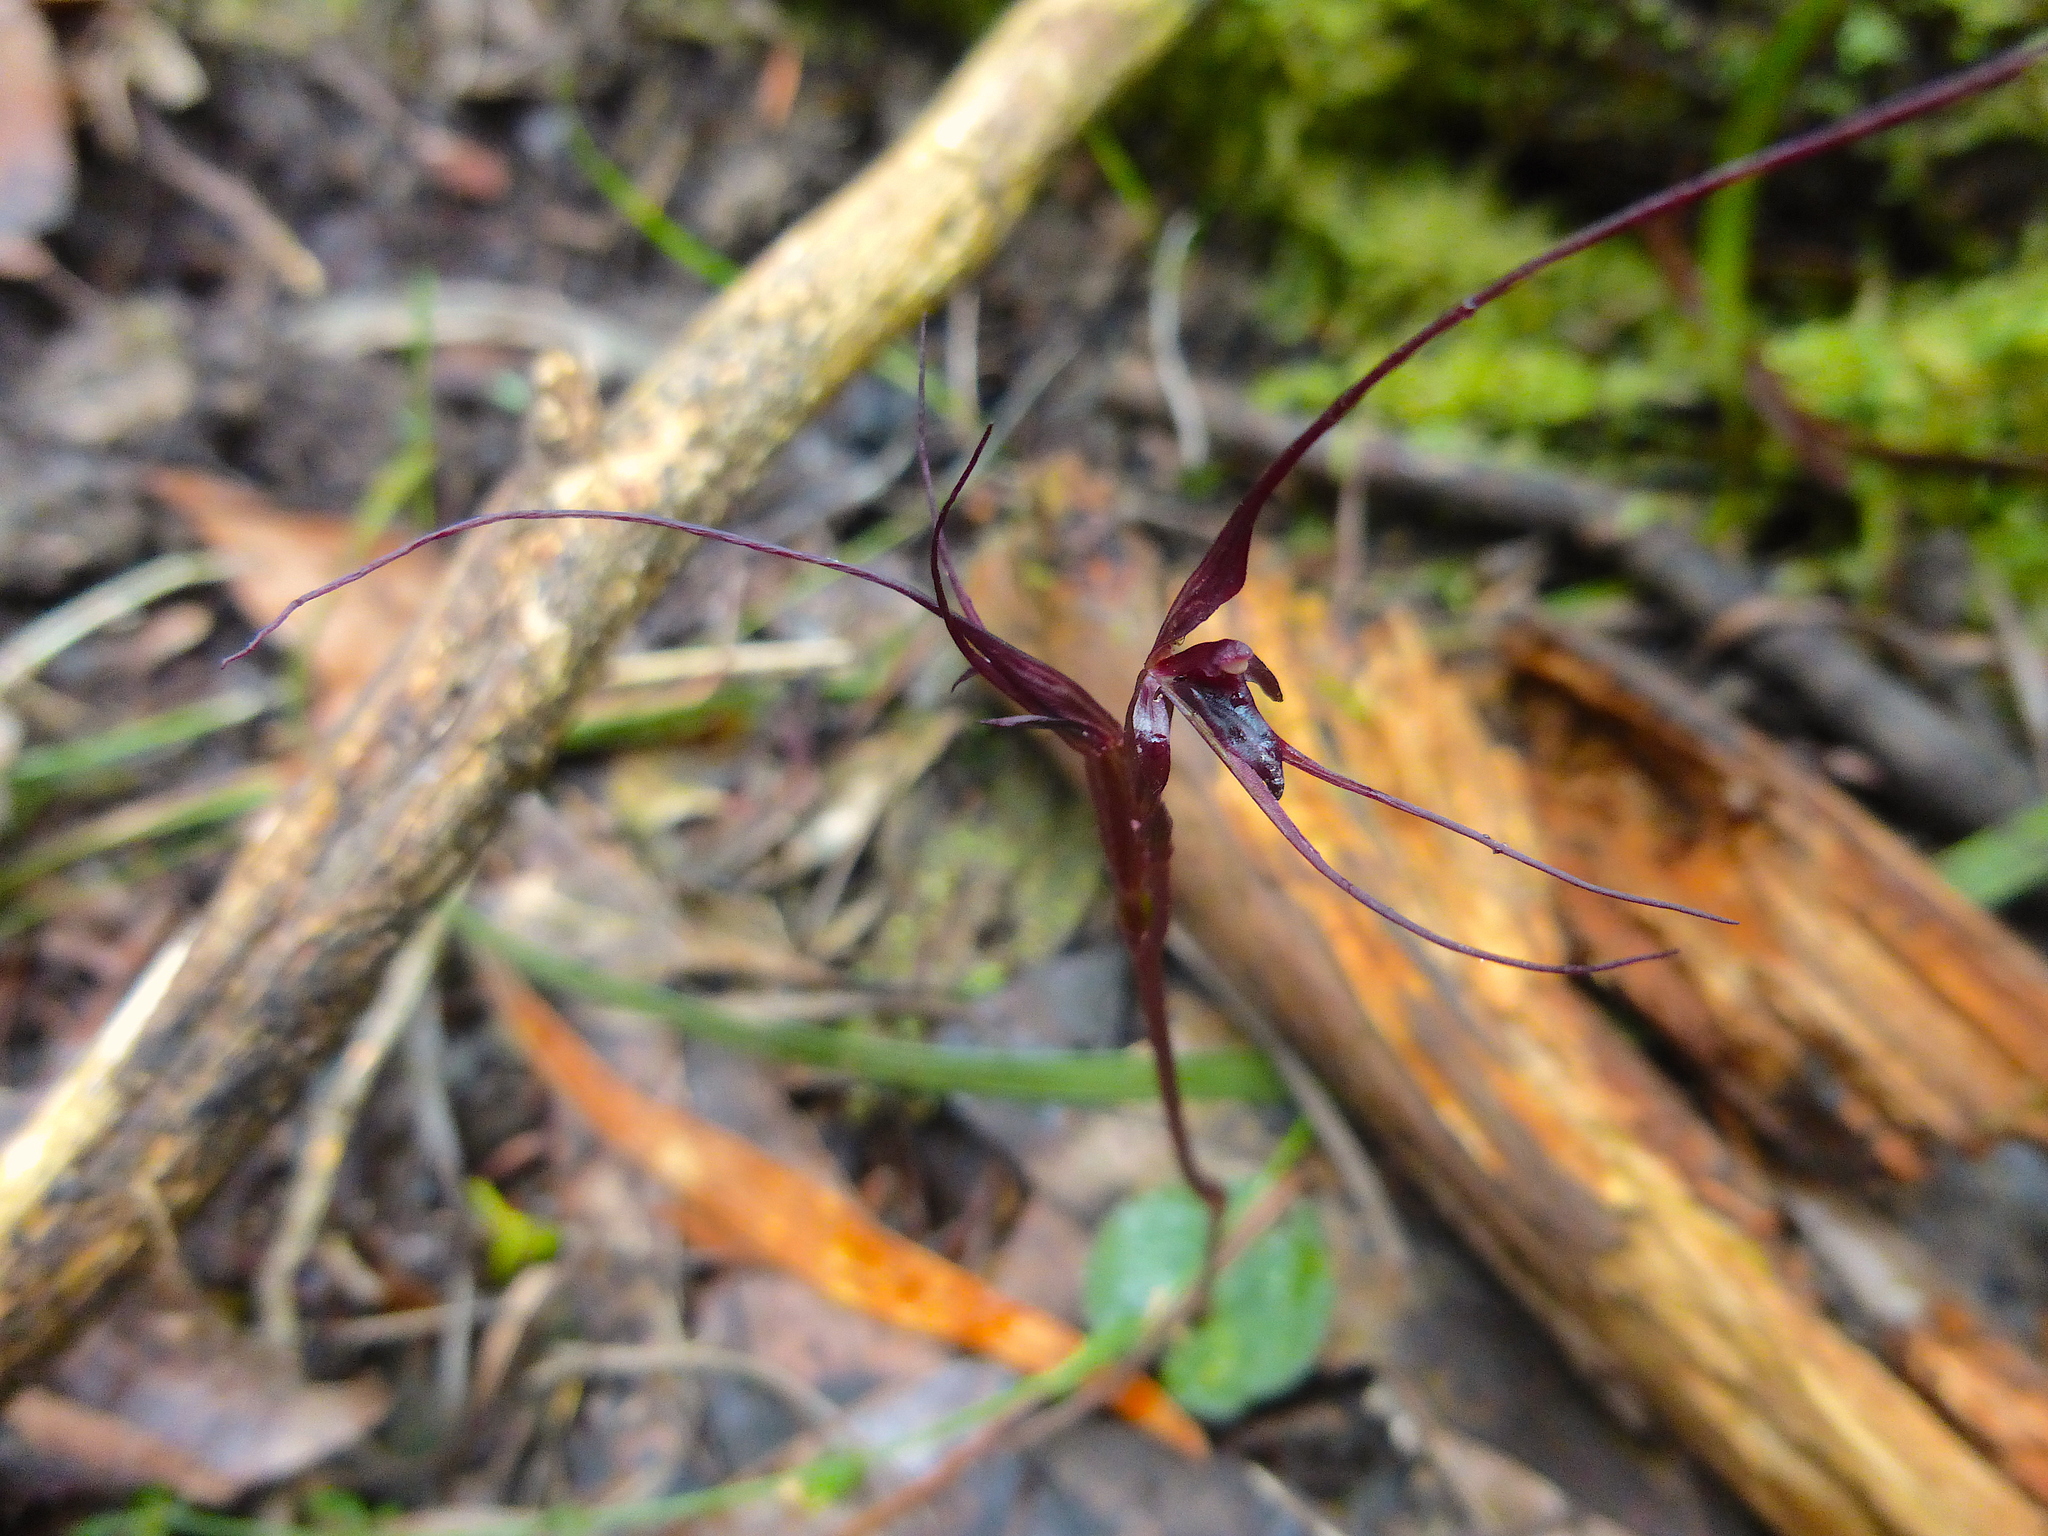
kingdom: Plantae
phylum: Tracheophyta
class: Liliopsida
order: Asparagales
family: Orchidaceae
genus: Acianthus
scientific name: Acianthus caudatus
